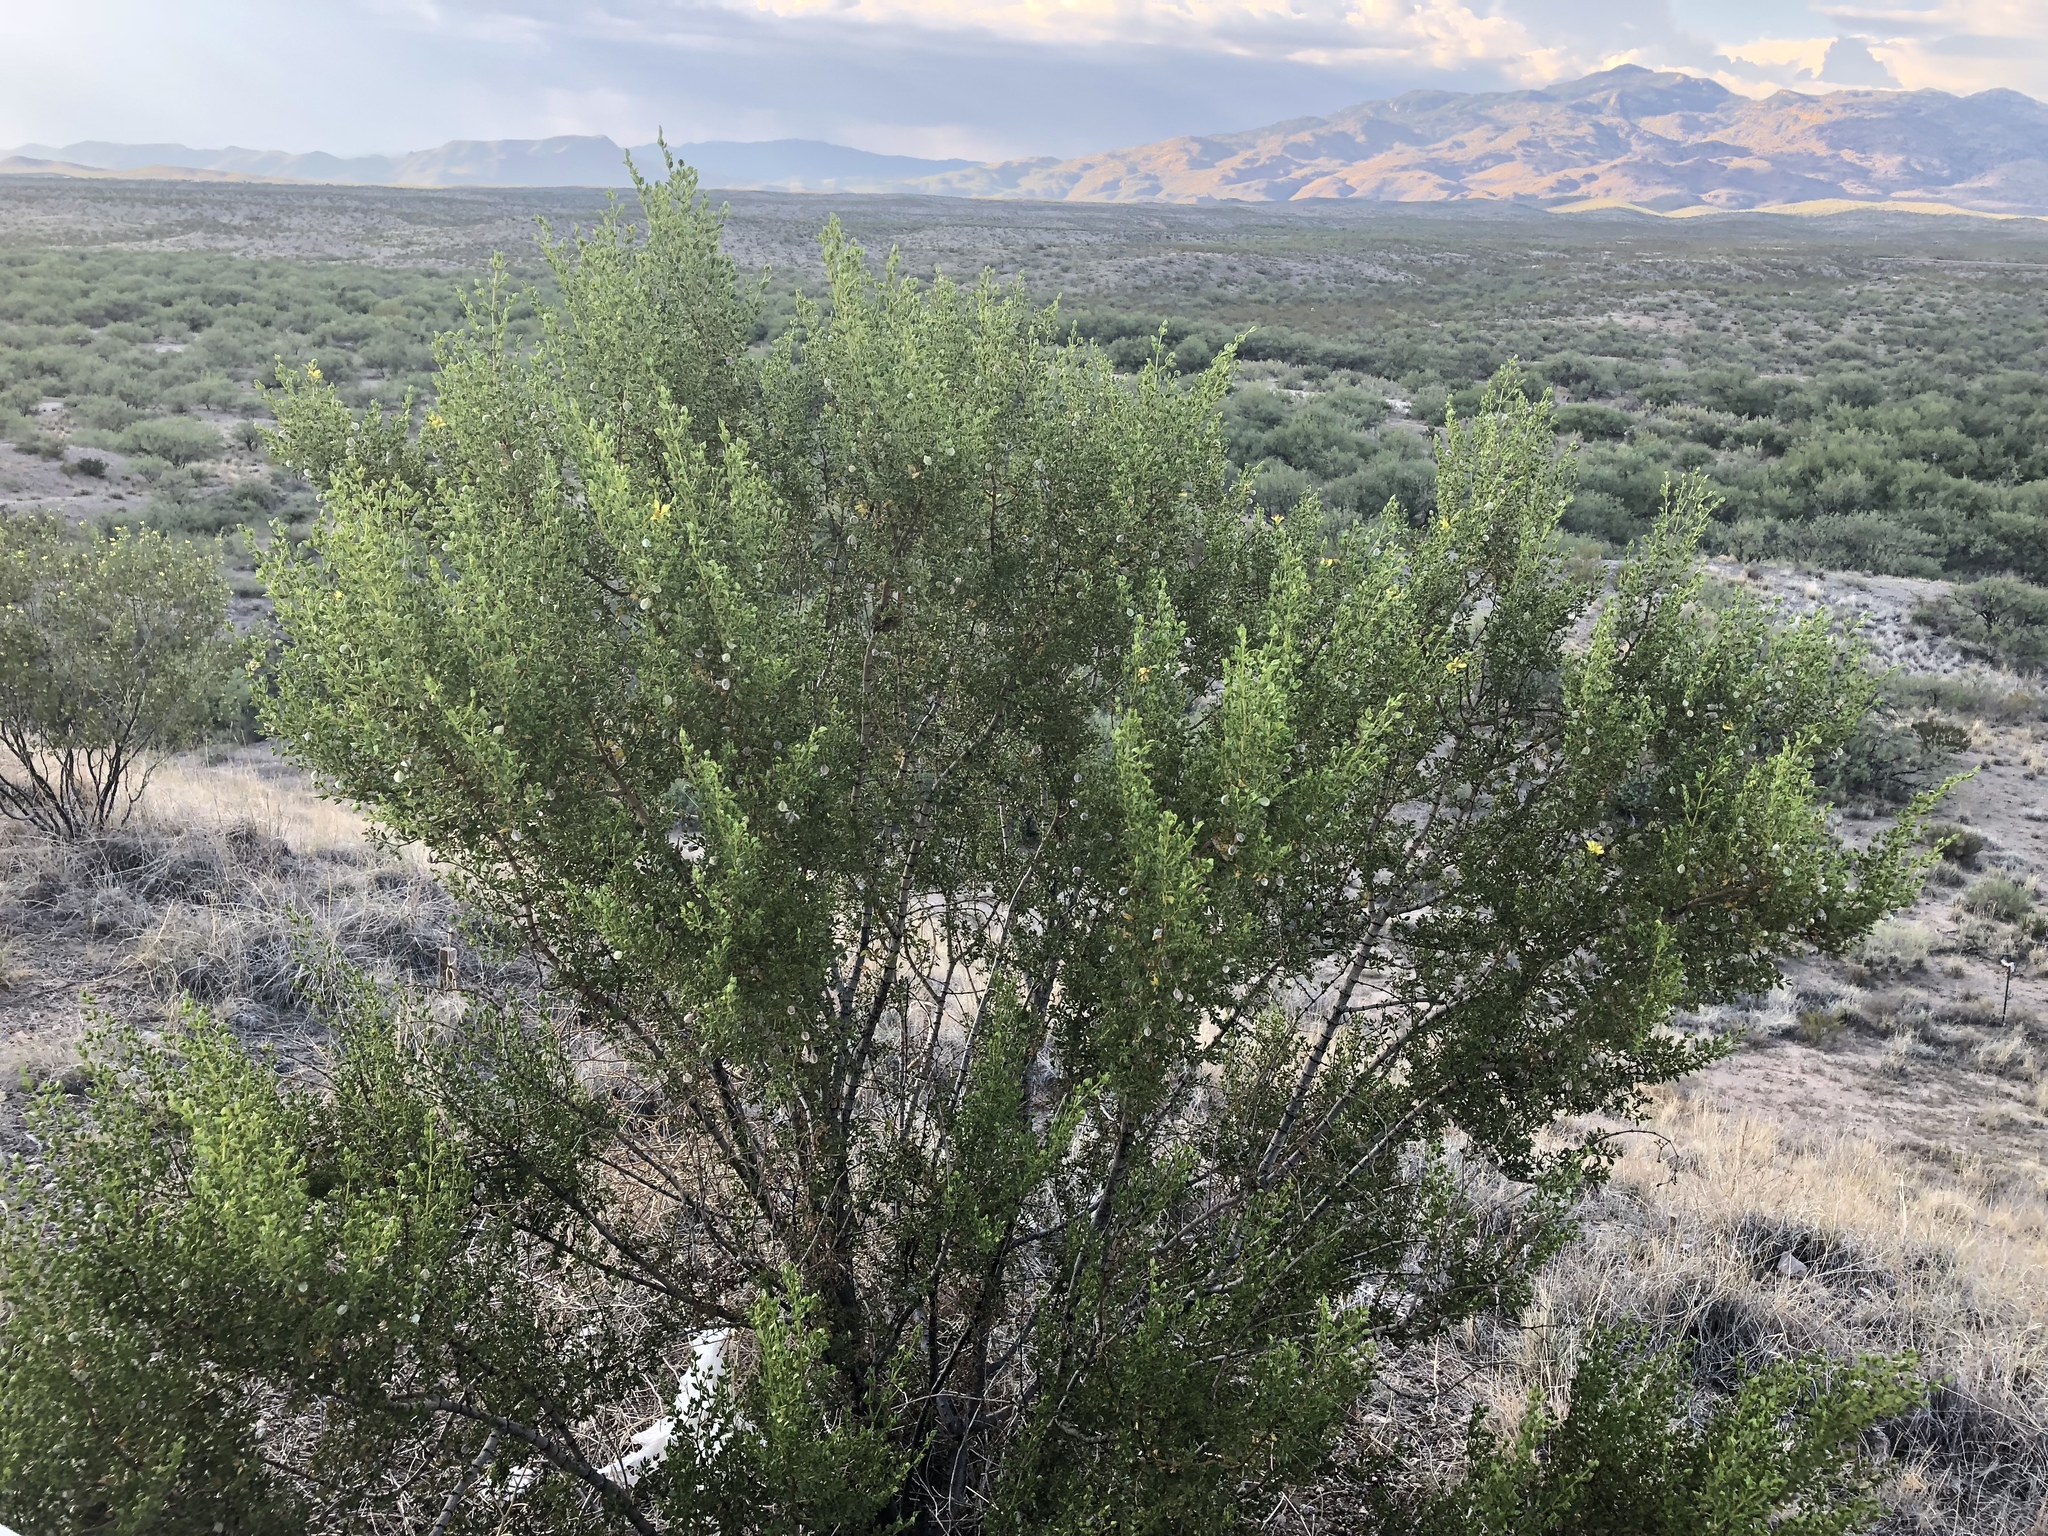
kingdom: Plantae
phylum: Tracheophyta
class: Magnoliopsida
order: Zygophyllales
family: Zygophyllaceae
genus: Larrea
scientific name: Larrea tridentata
